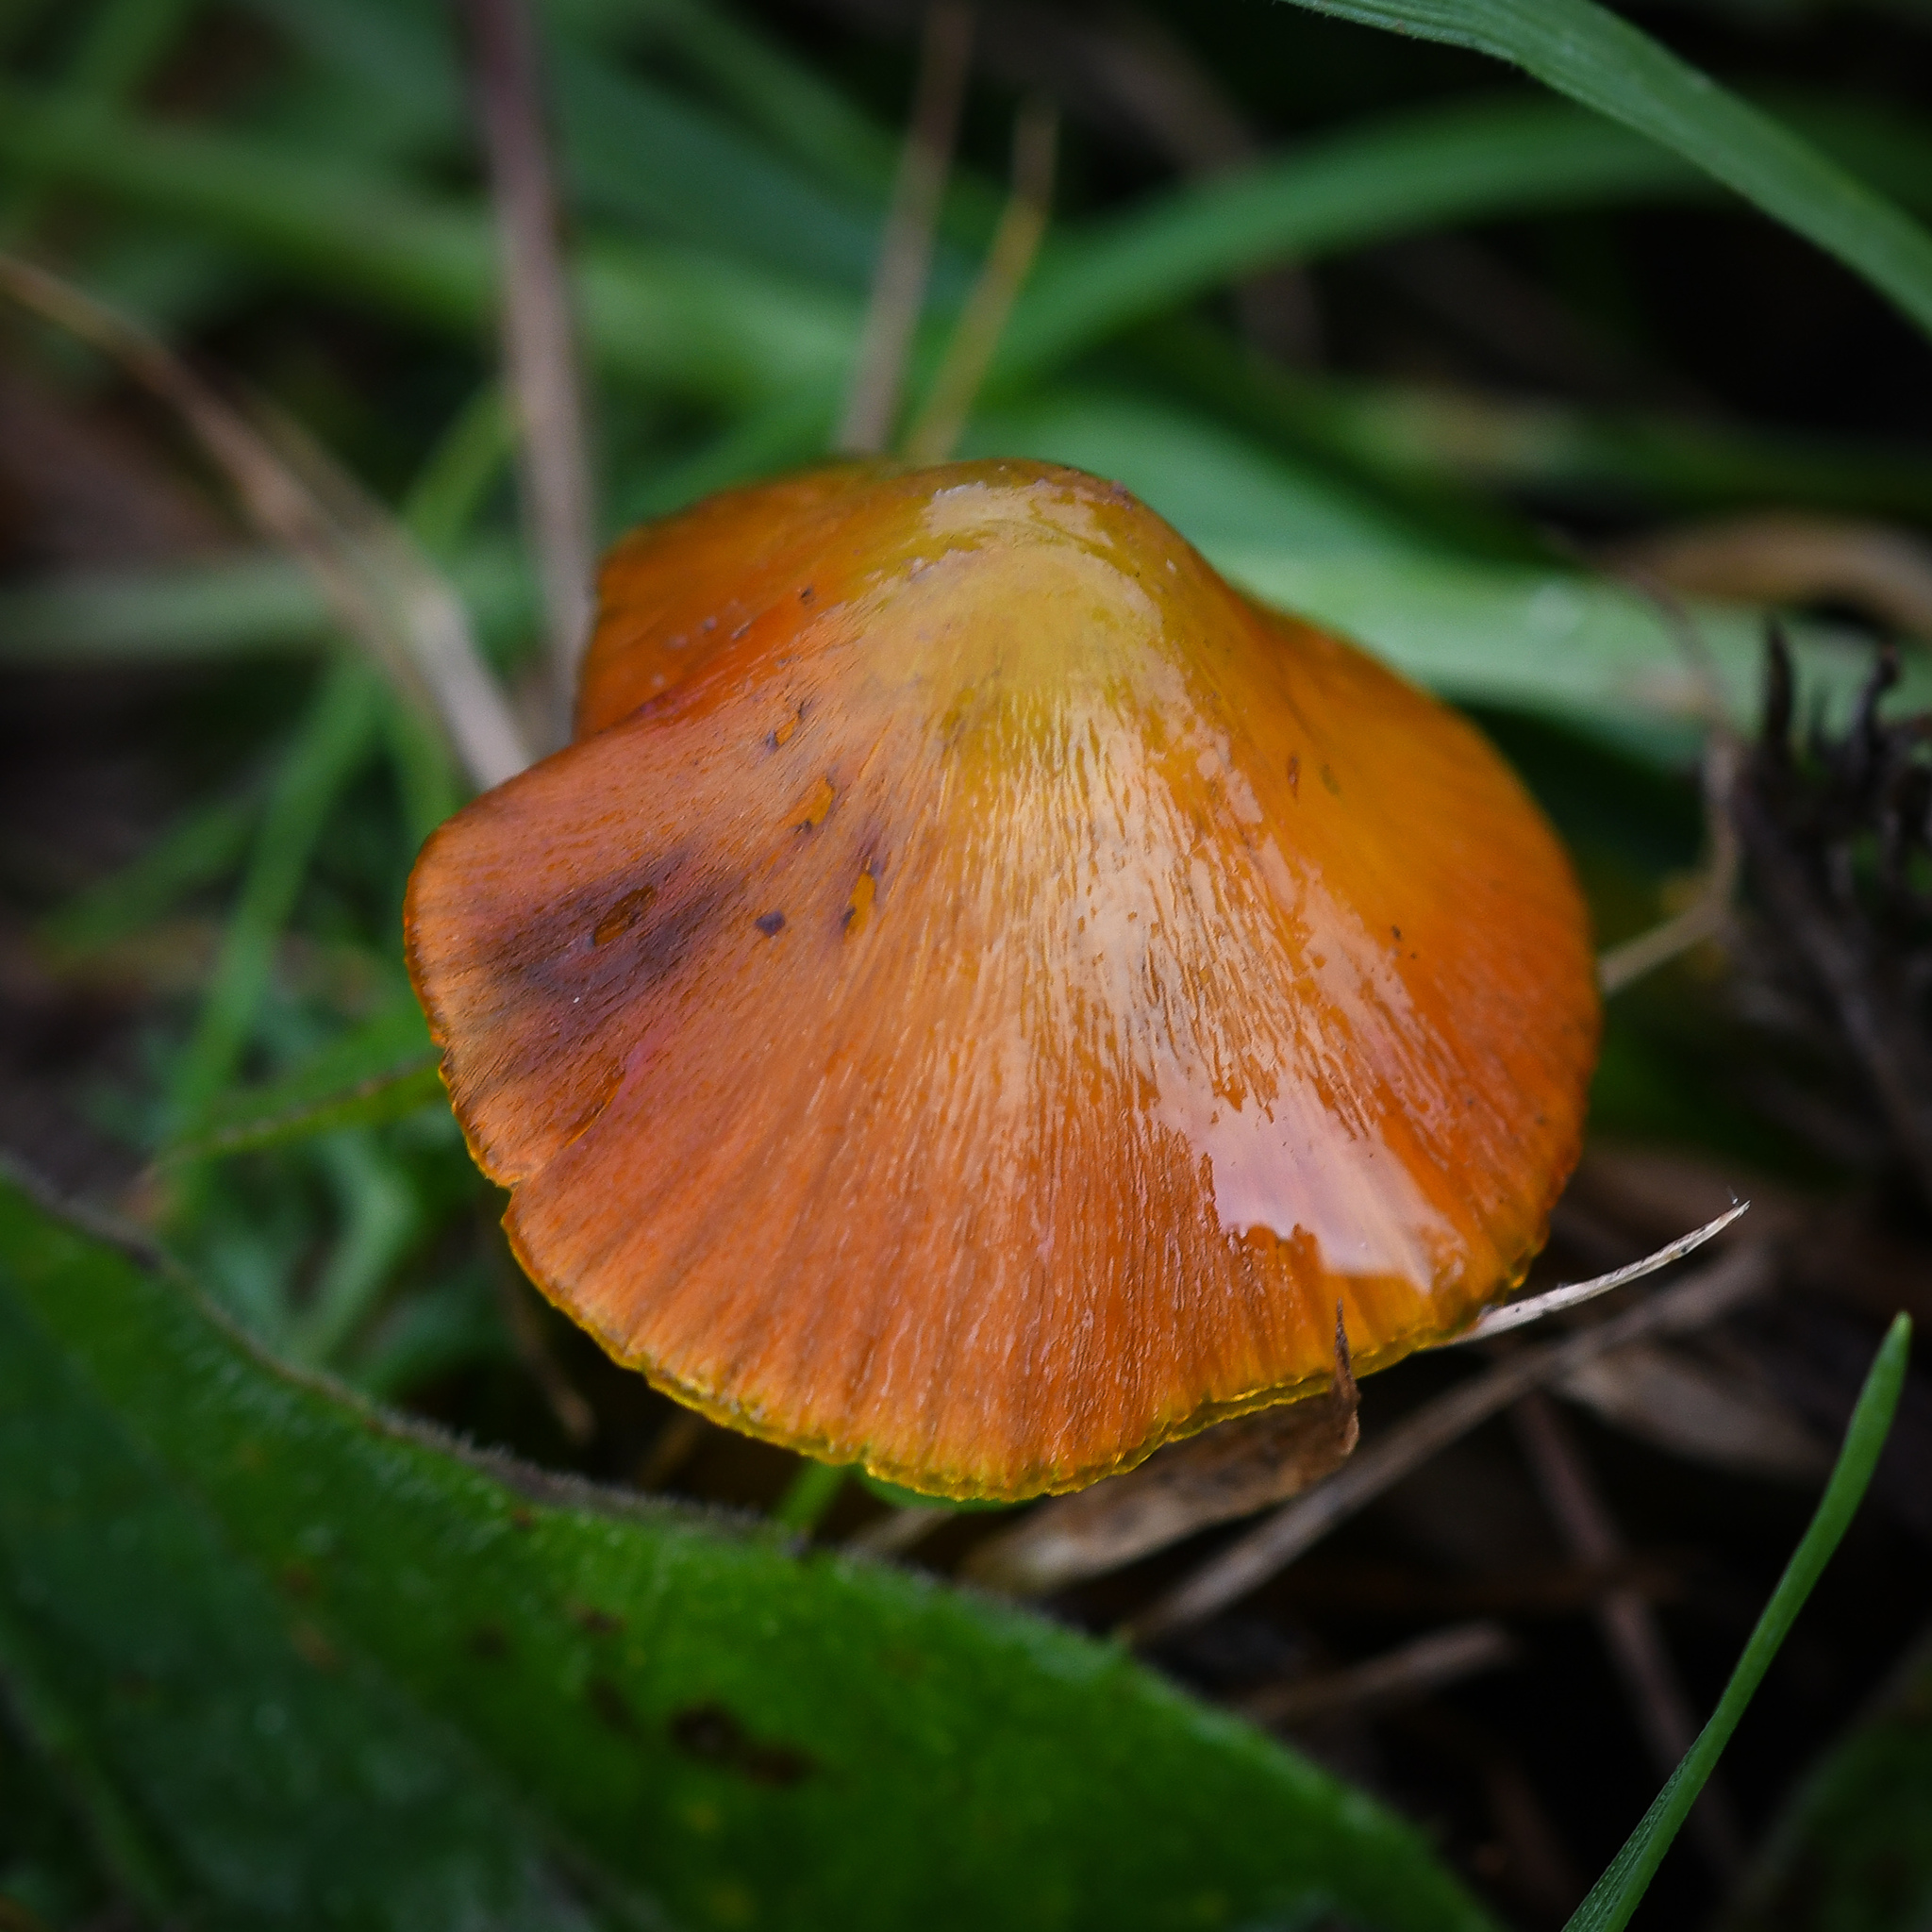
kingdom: Fungi
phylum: Basidiomycota
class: Agaricomycetes
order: Agaricales
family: Hygrophoraceae
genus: Hygrocybe
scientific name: Hygrocybe conica
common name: Blackening wax-cap
